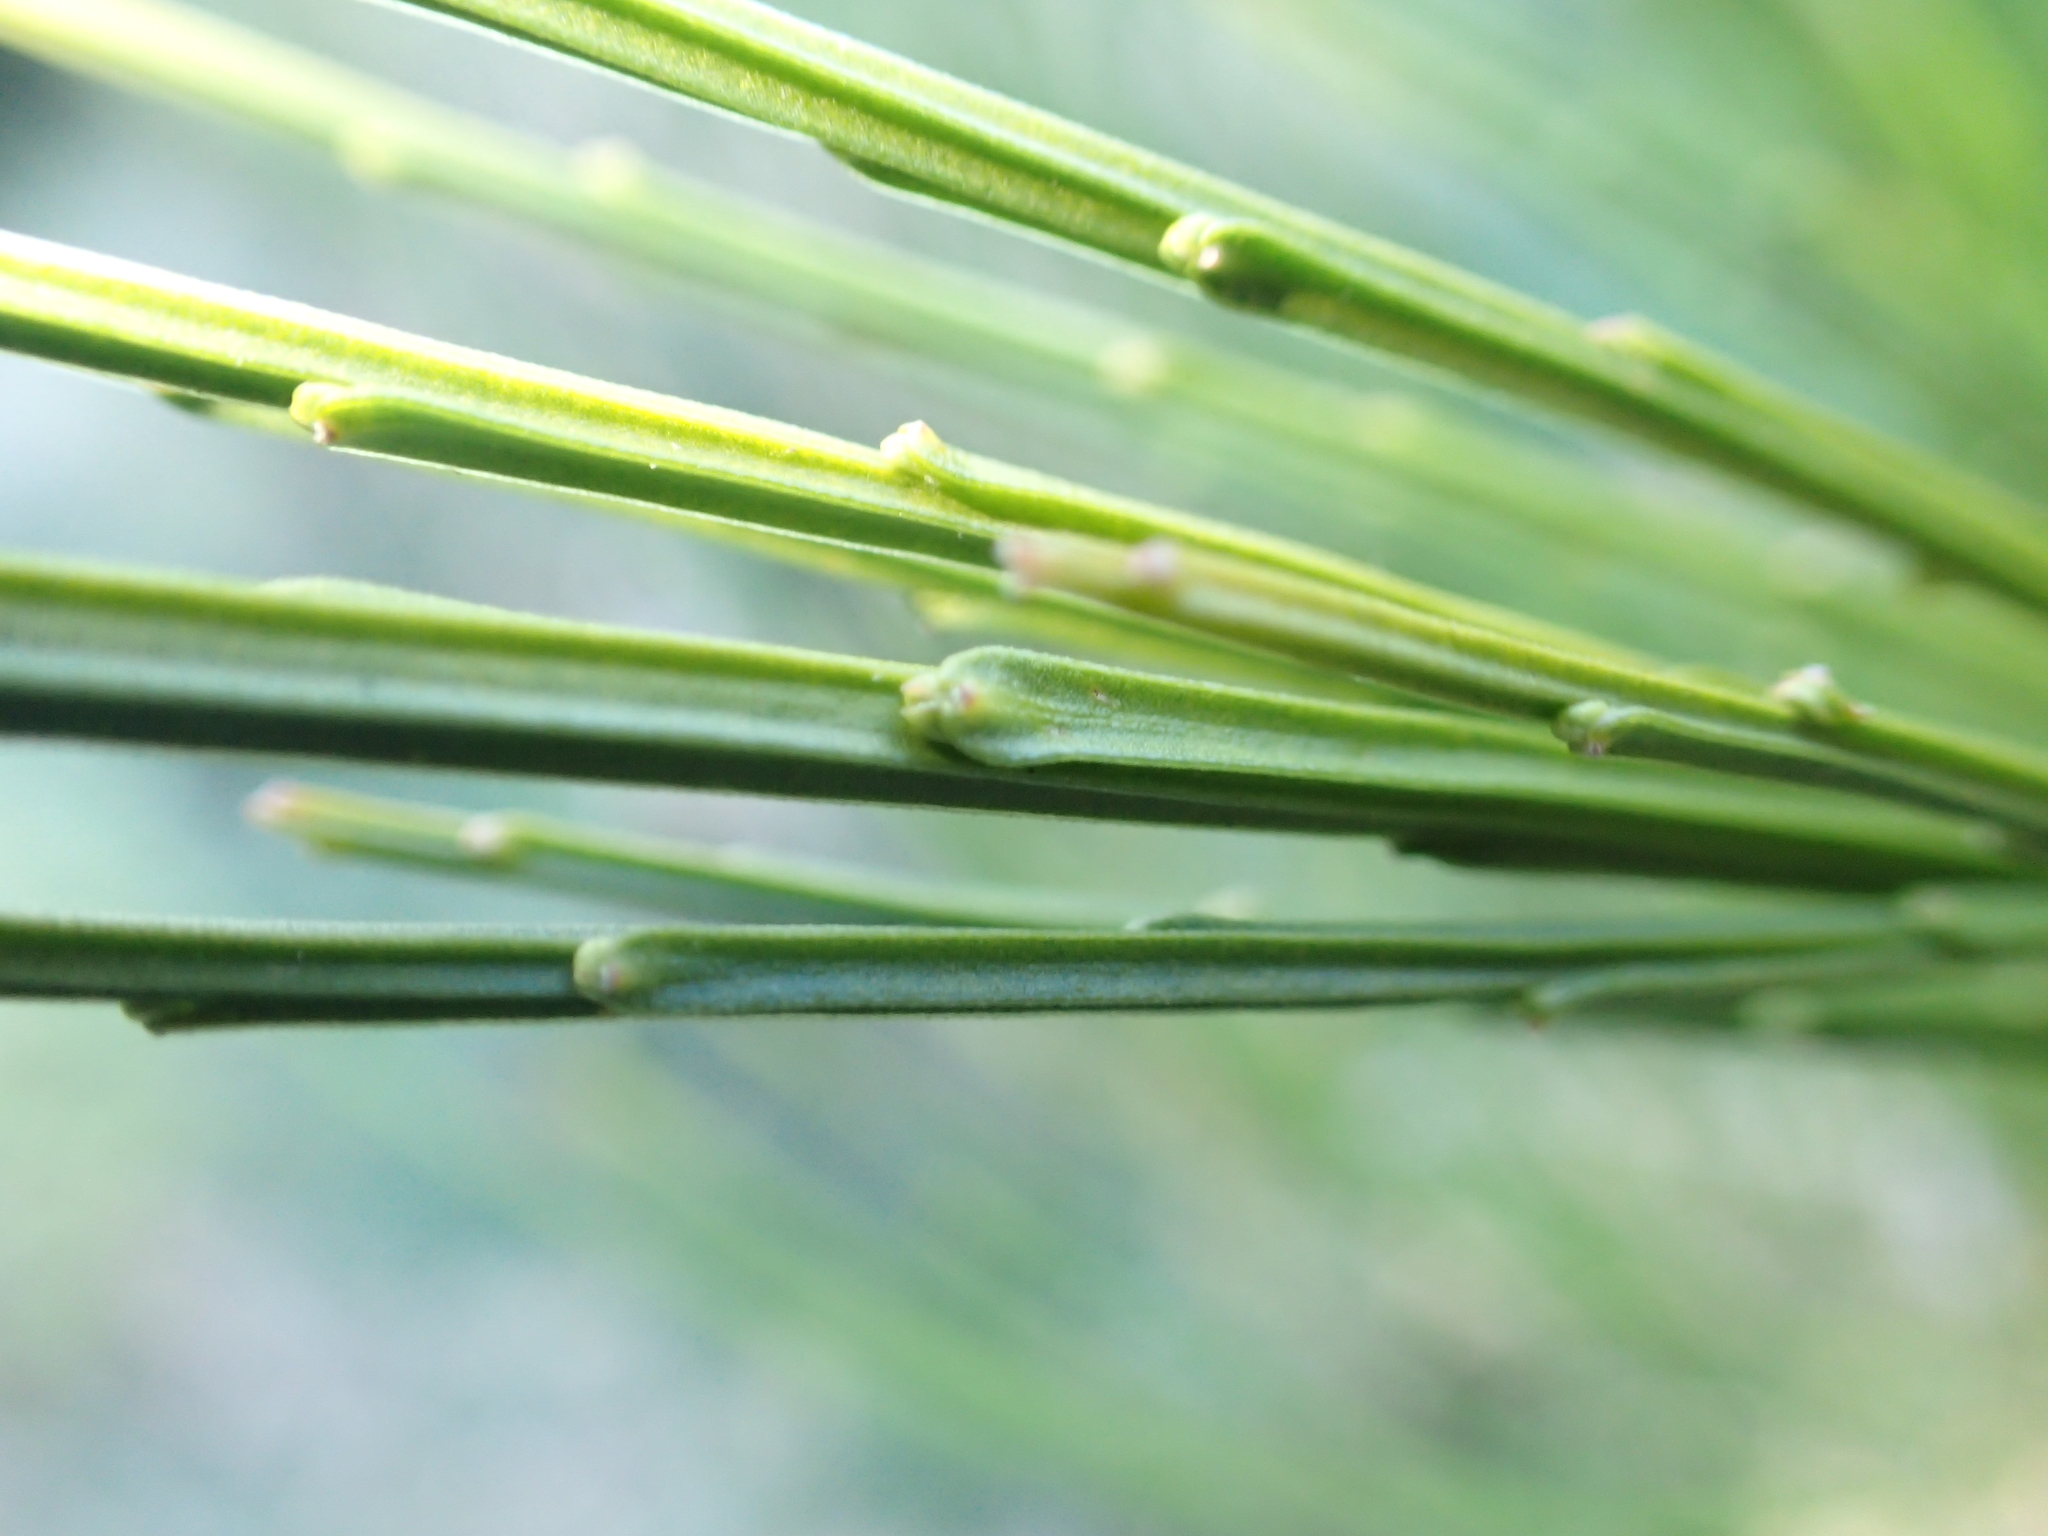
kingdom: Plantae
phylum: Tracheophyta
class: Magnoliopsida
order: Fabales
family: Fabaceae
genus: Cytisus
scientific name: Cytisus scoparius
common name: Scotch broom
